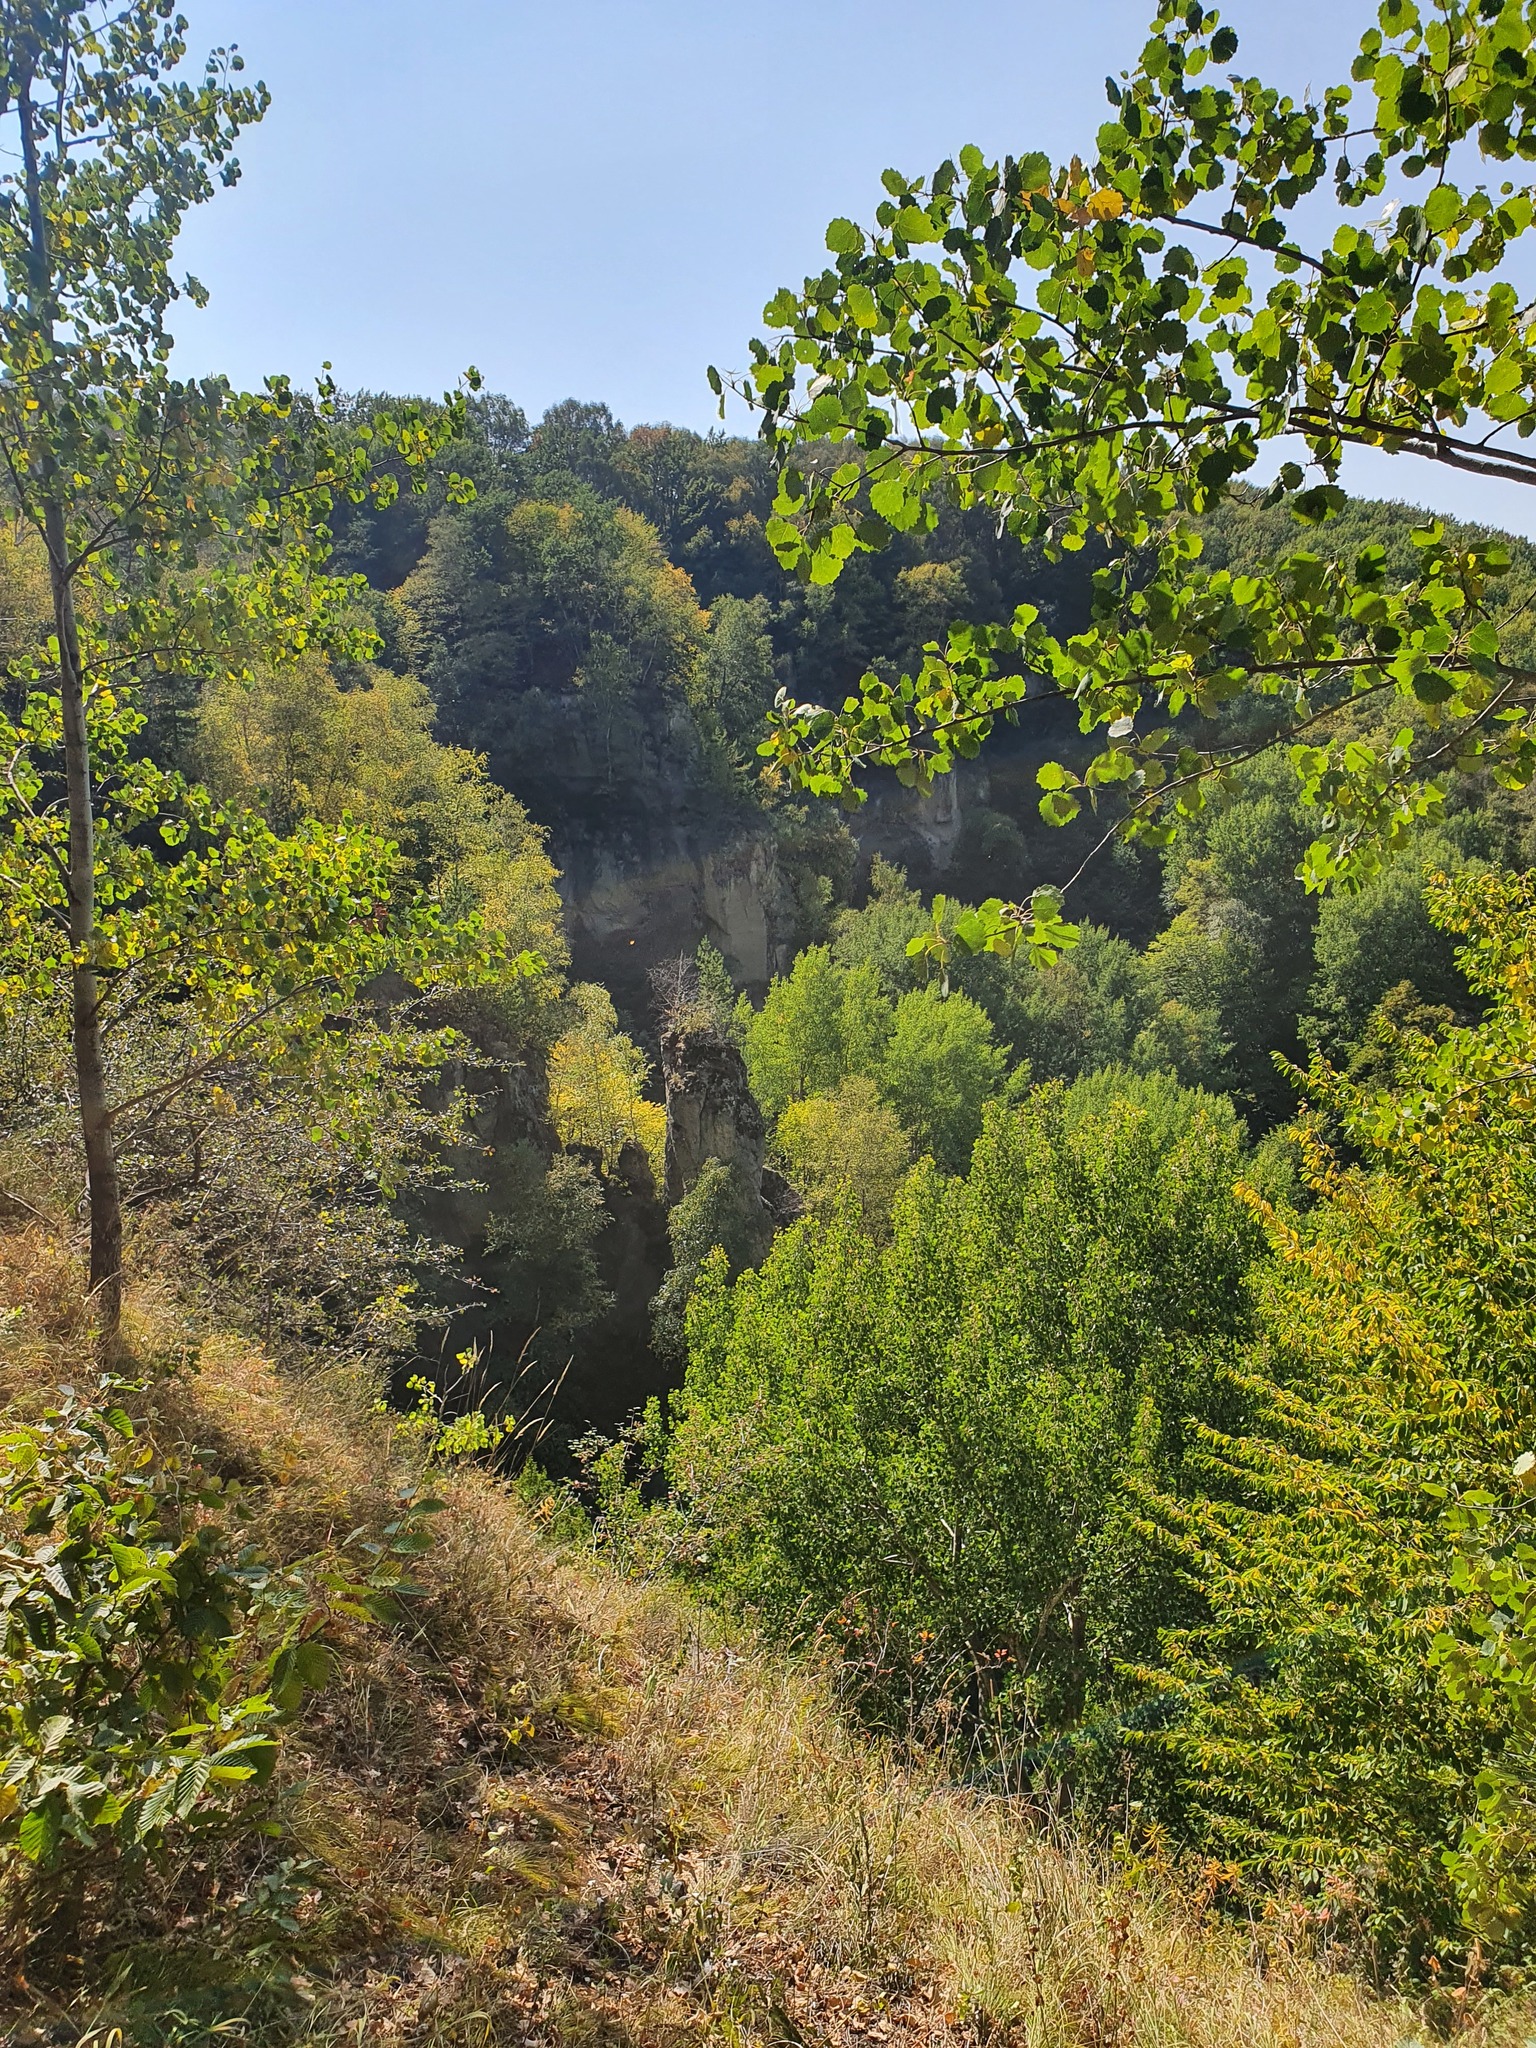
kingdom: Plantae
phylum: Tracheophyta
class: Magnoliopsida
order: Malpighiales
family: Salicaceae
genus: Populus
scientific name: Populus tremula
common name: European aspen
